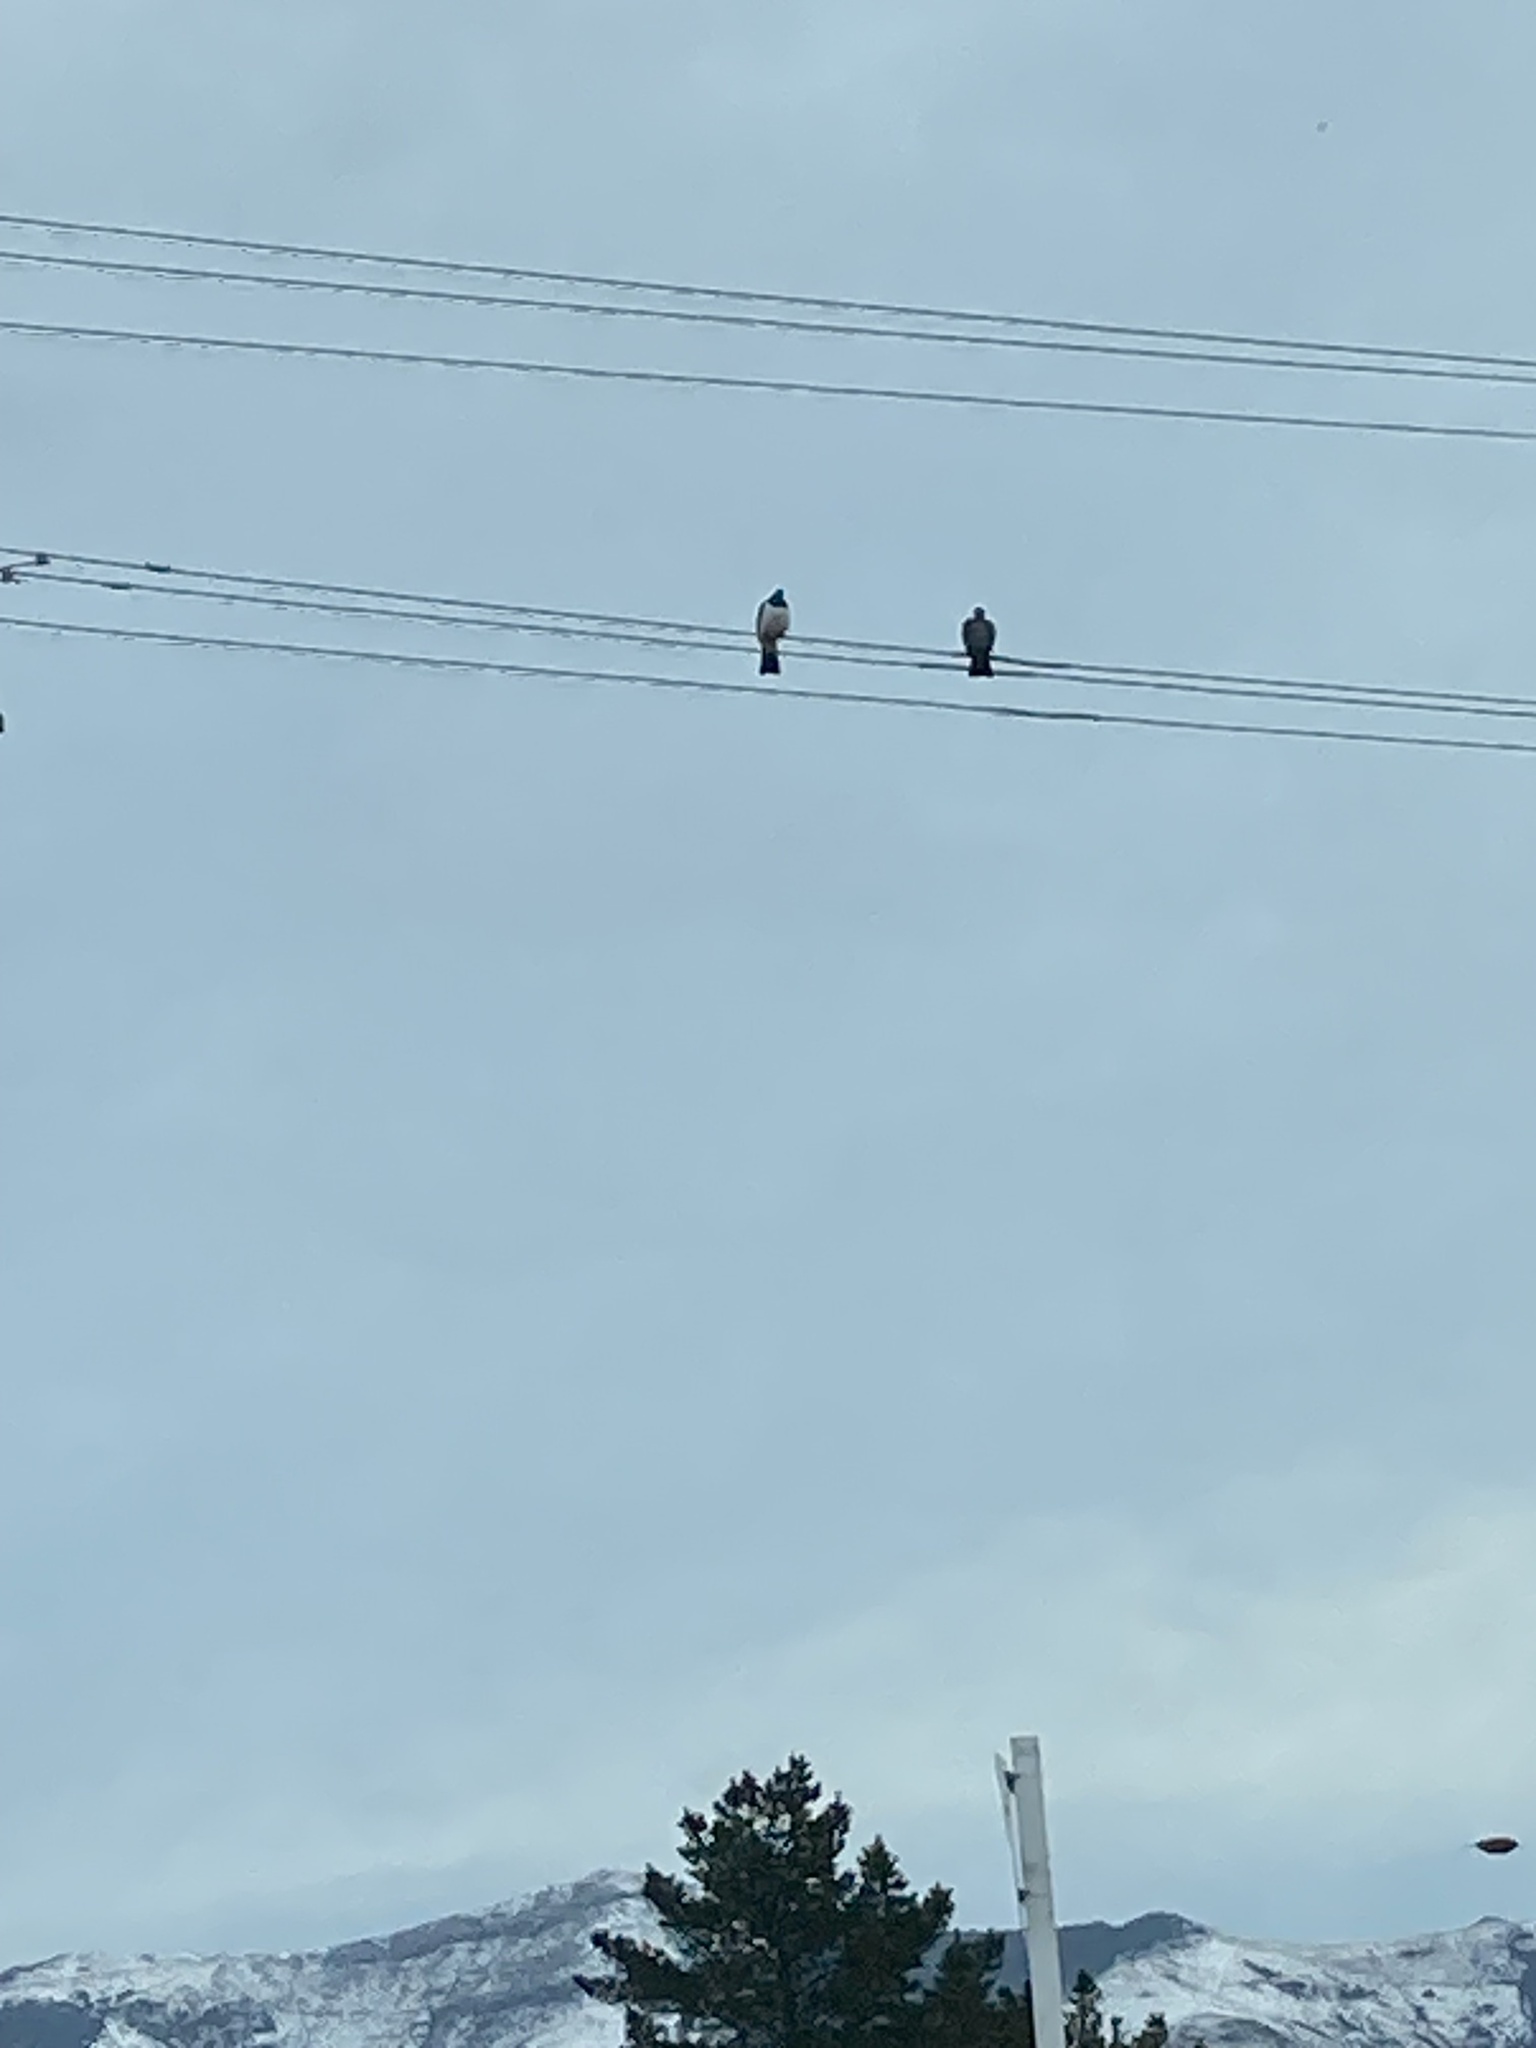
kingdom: Animalia
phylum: Chordata
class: Aves
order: Columbiformes
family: Columbidae
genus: Hemiphaga
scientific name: Hemiphaga novaeseelandiae
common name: New zealand pigeon
